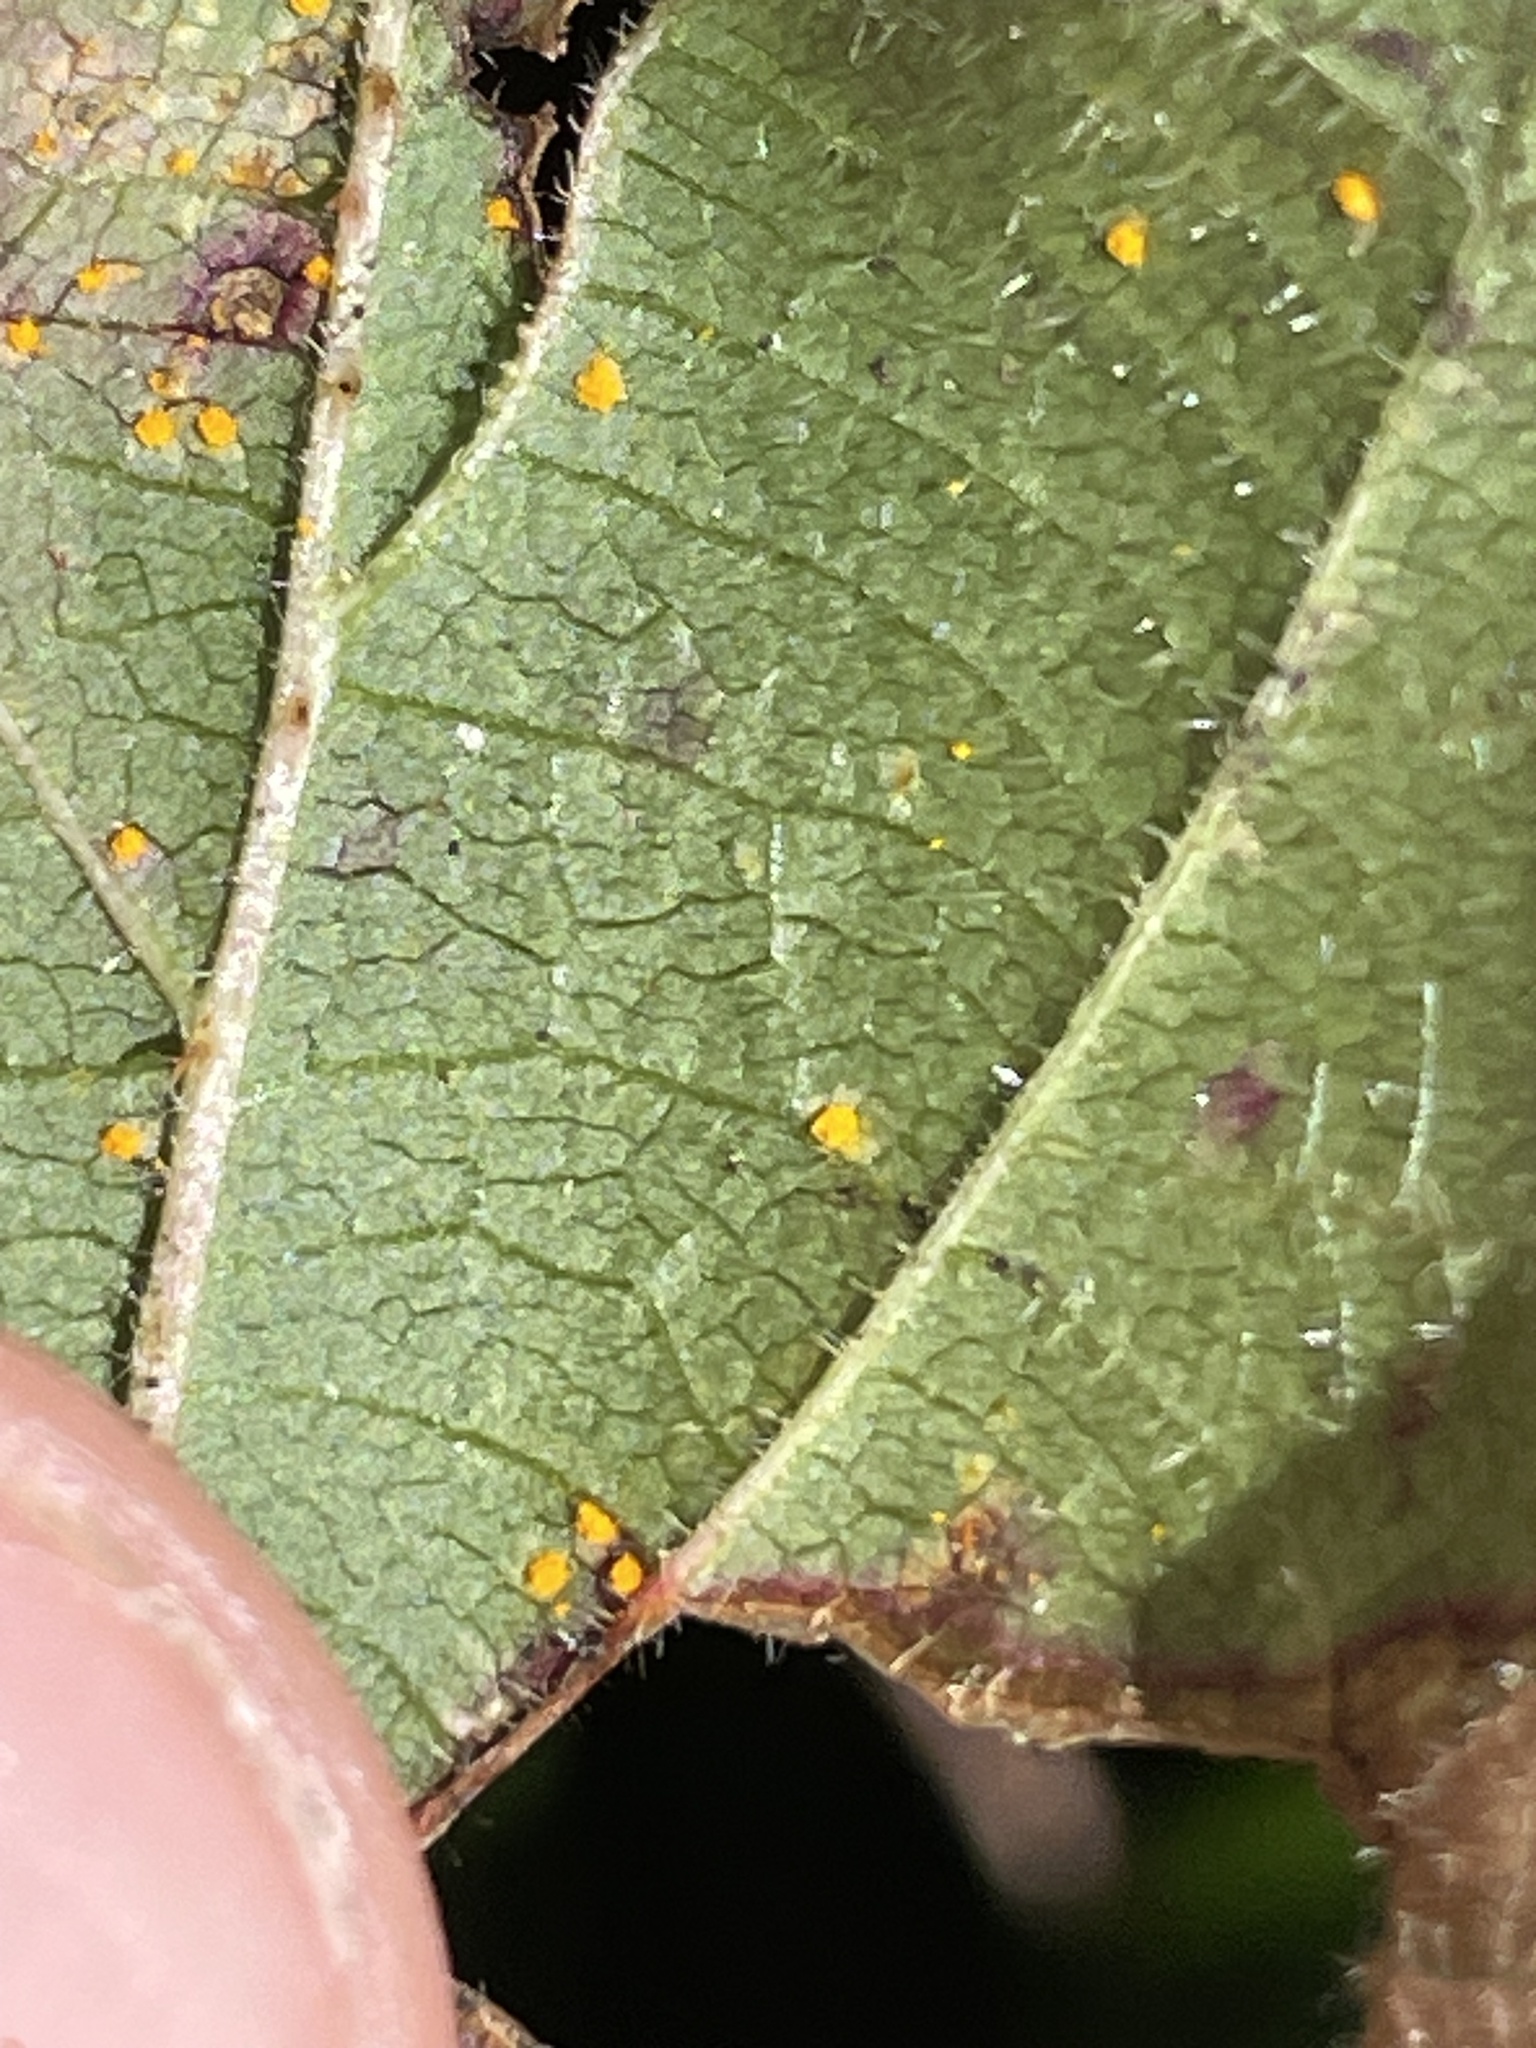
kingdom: Fungi
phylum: Basidiomycota
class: Pucciniomycetes
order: Pucciniales
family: Phragmidiaceae
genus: Phragmidium
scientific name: Phragmidium violaceum
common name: Violet bramble rust
